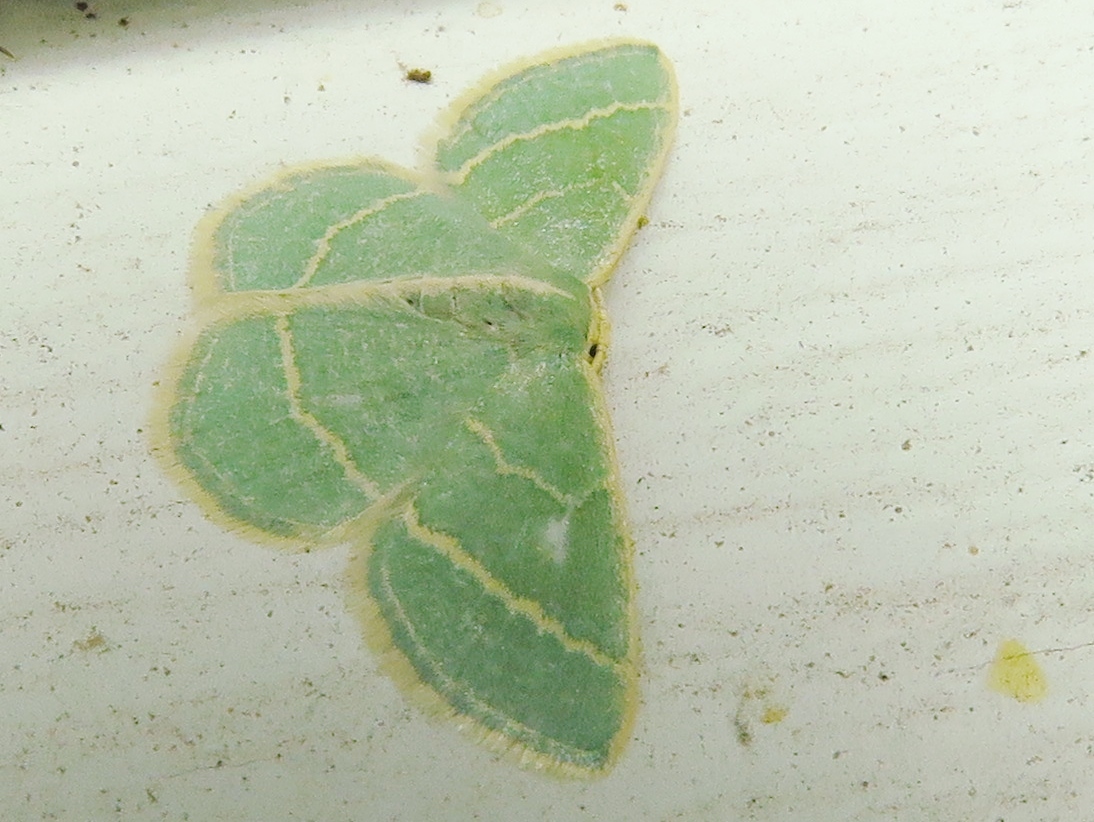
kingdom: Animalia
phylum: Arthropoda
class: Insecta
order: Lepidoptera
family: Geometridae
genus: Chlorochlamys
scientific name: Chlorochlamys chloroleucaria
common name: Blackberry looper
